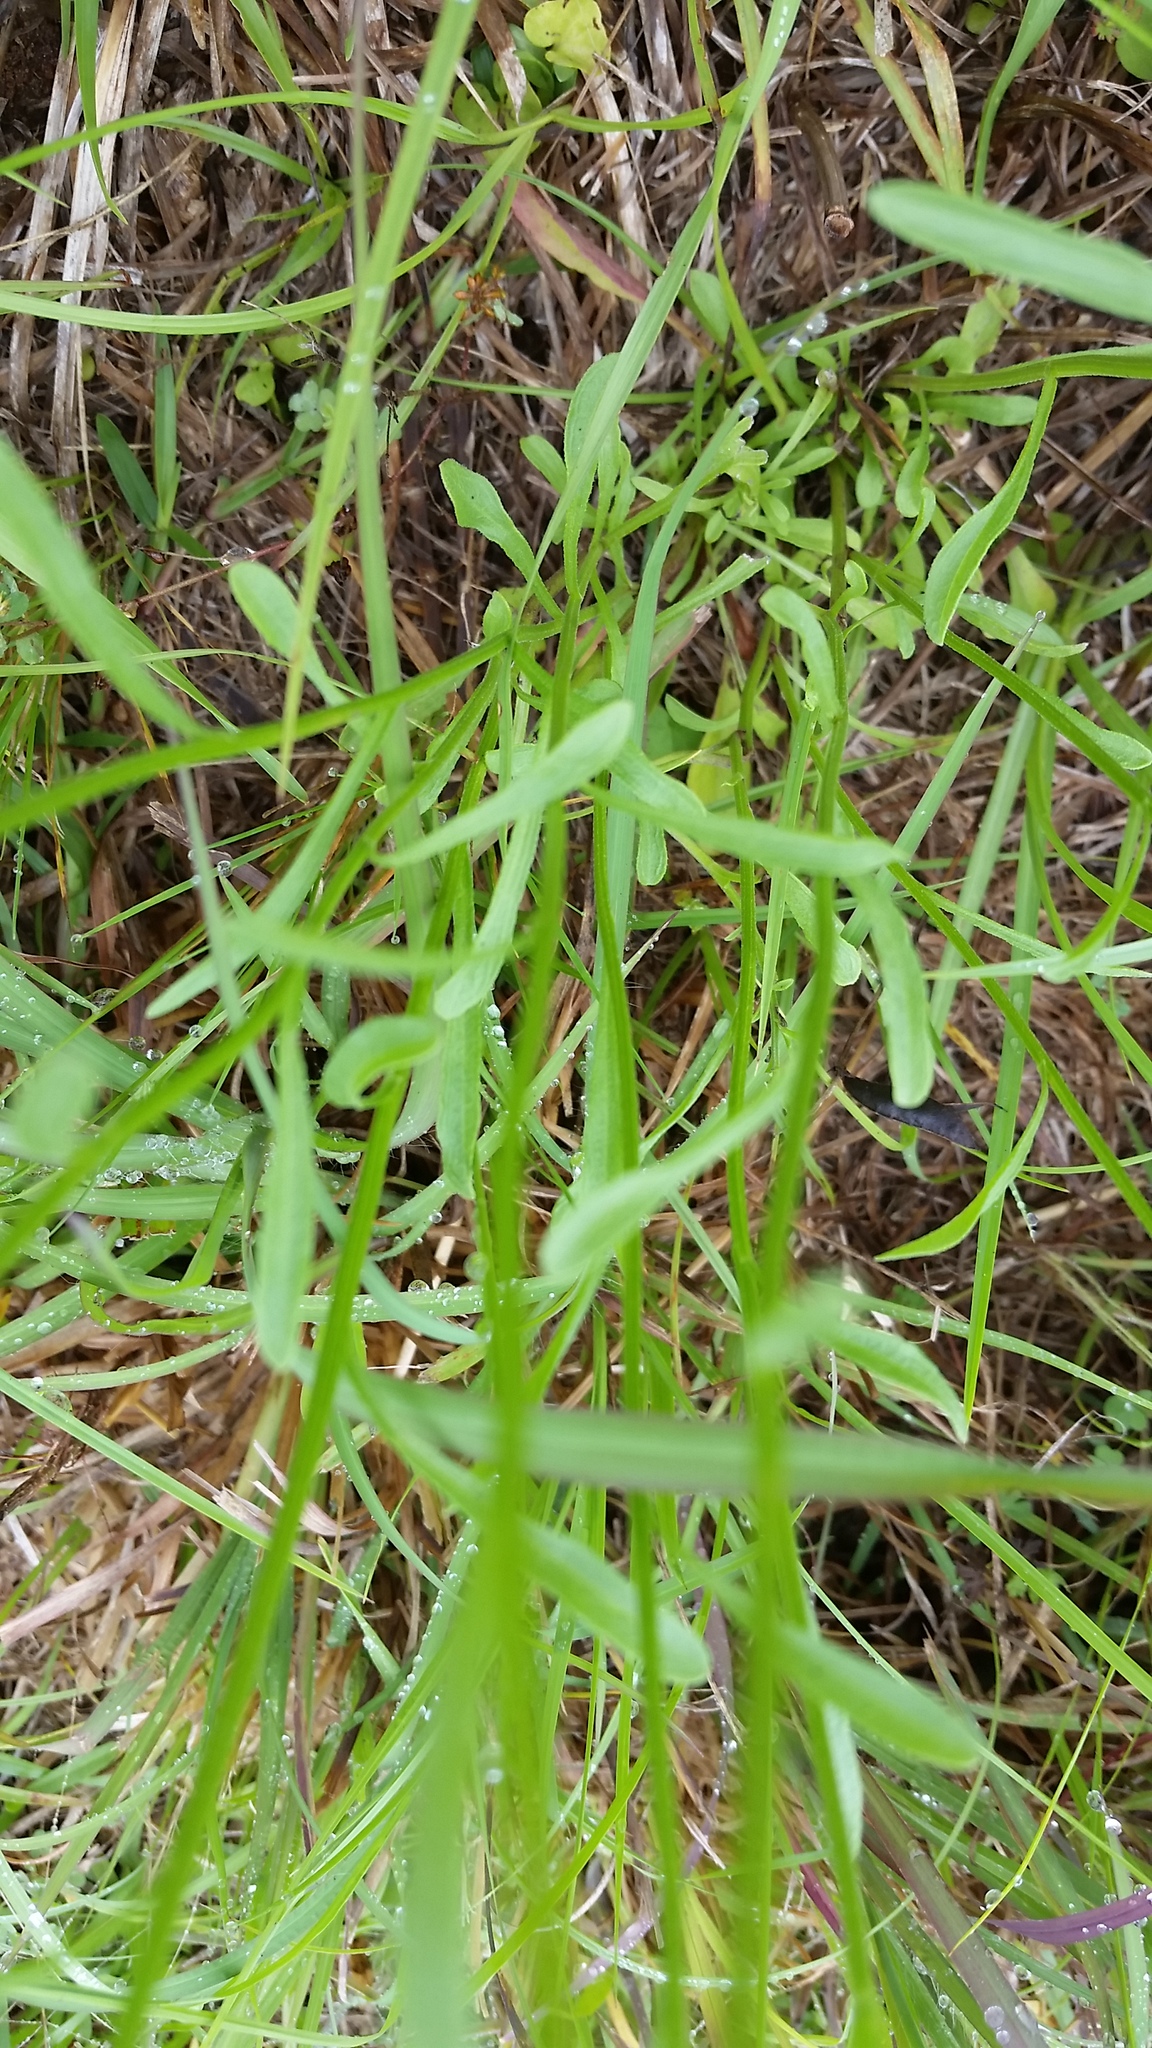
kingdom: Plantae
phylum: Tracheophyta
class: Magnoliopsida
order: Asterales
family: Asteraceae
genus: Erigeron
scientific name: Erigeron strigosus
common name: Common eastern fleabane
